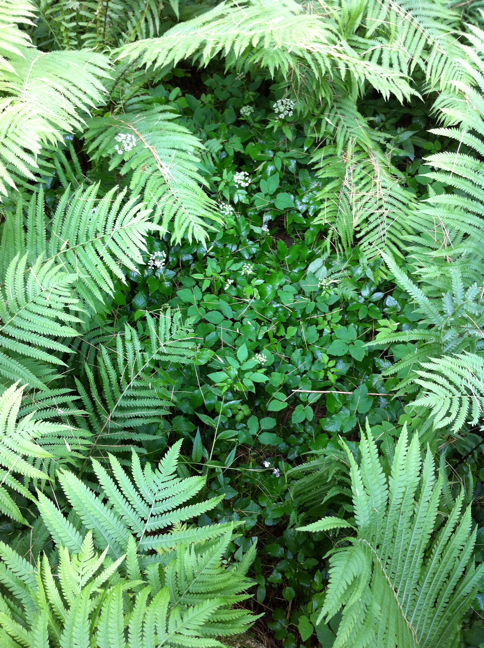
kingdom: Plantae
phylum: Tracheophyta
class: Magnoliopsida
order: Apiales
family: Apiaceae
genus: Aegopodium
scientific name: Aegopodium podagraria
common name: Ground-elder
